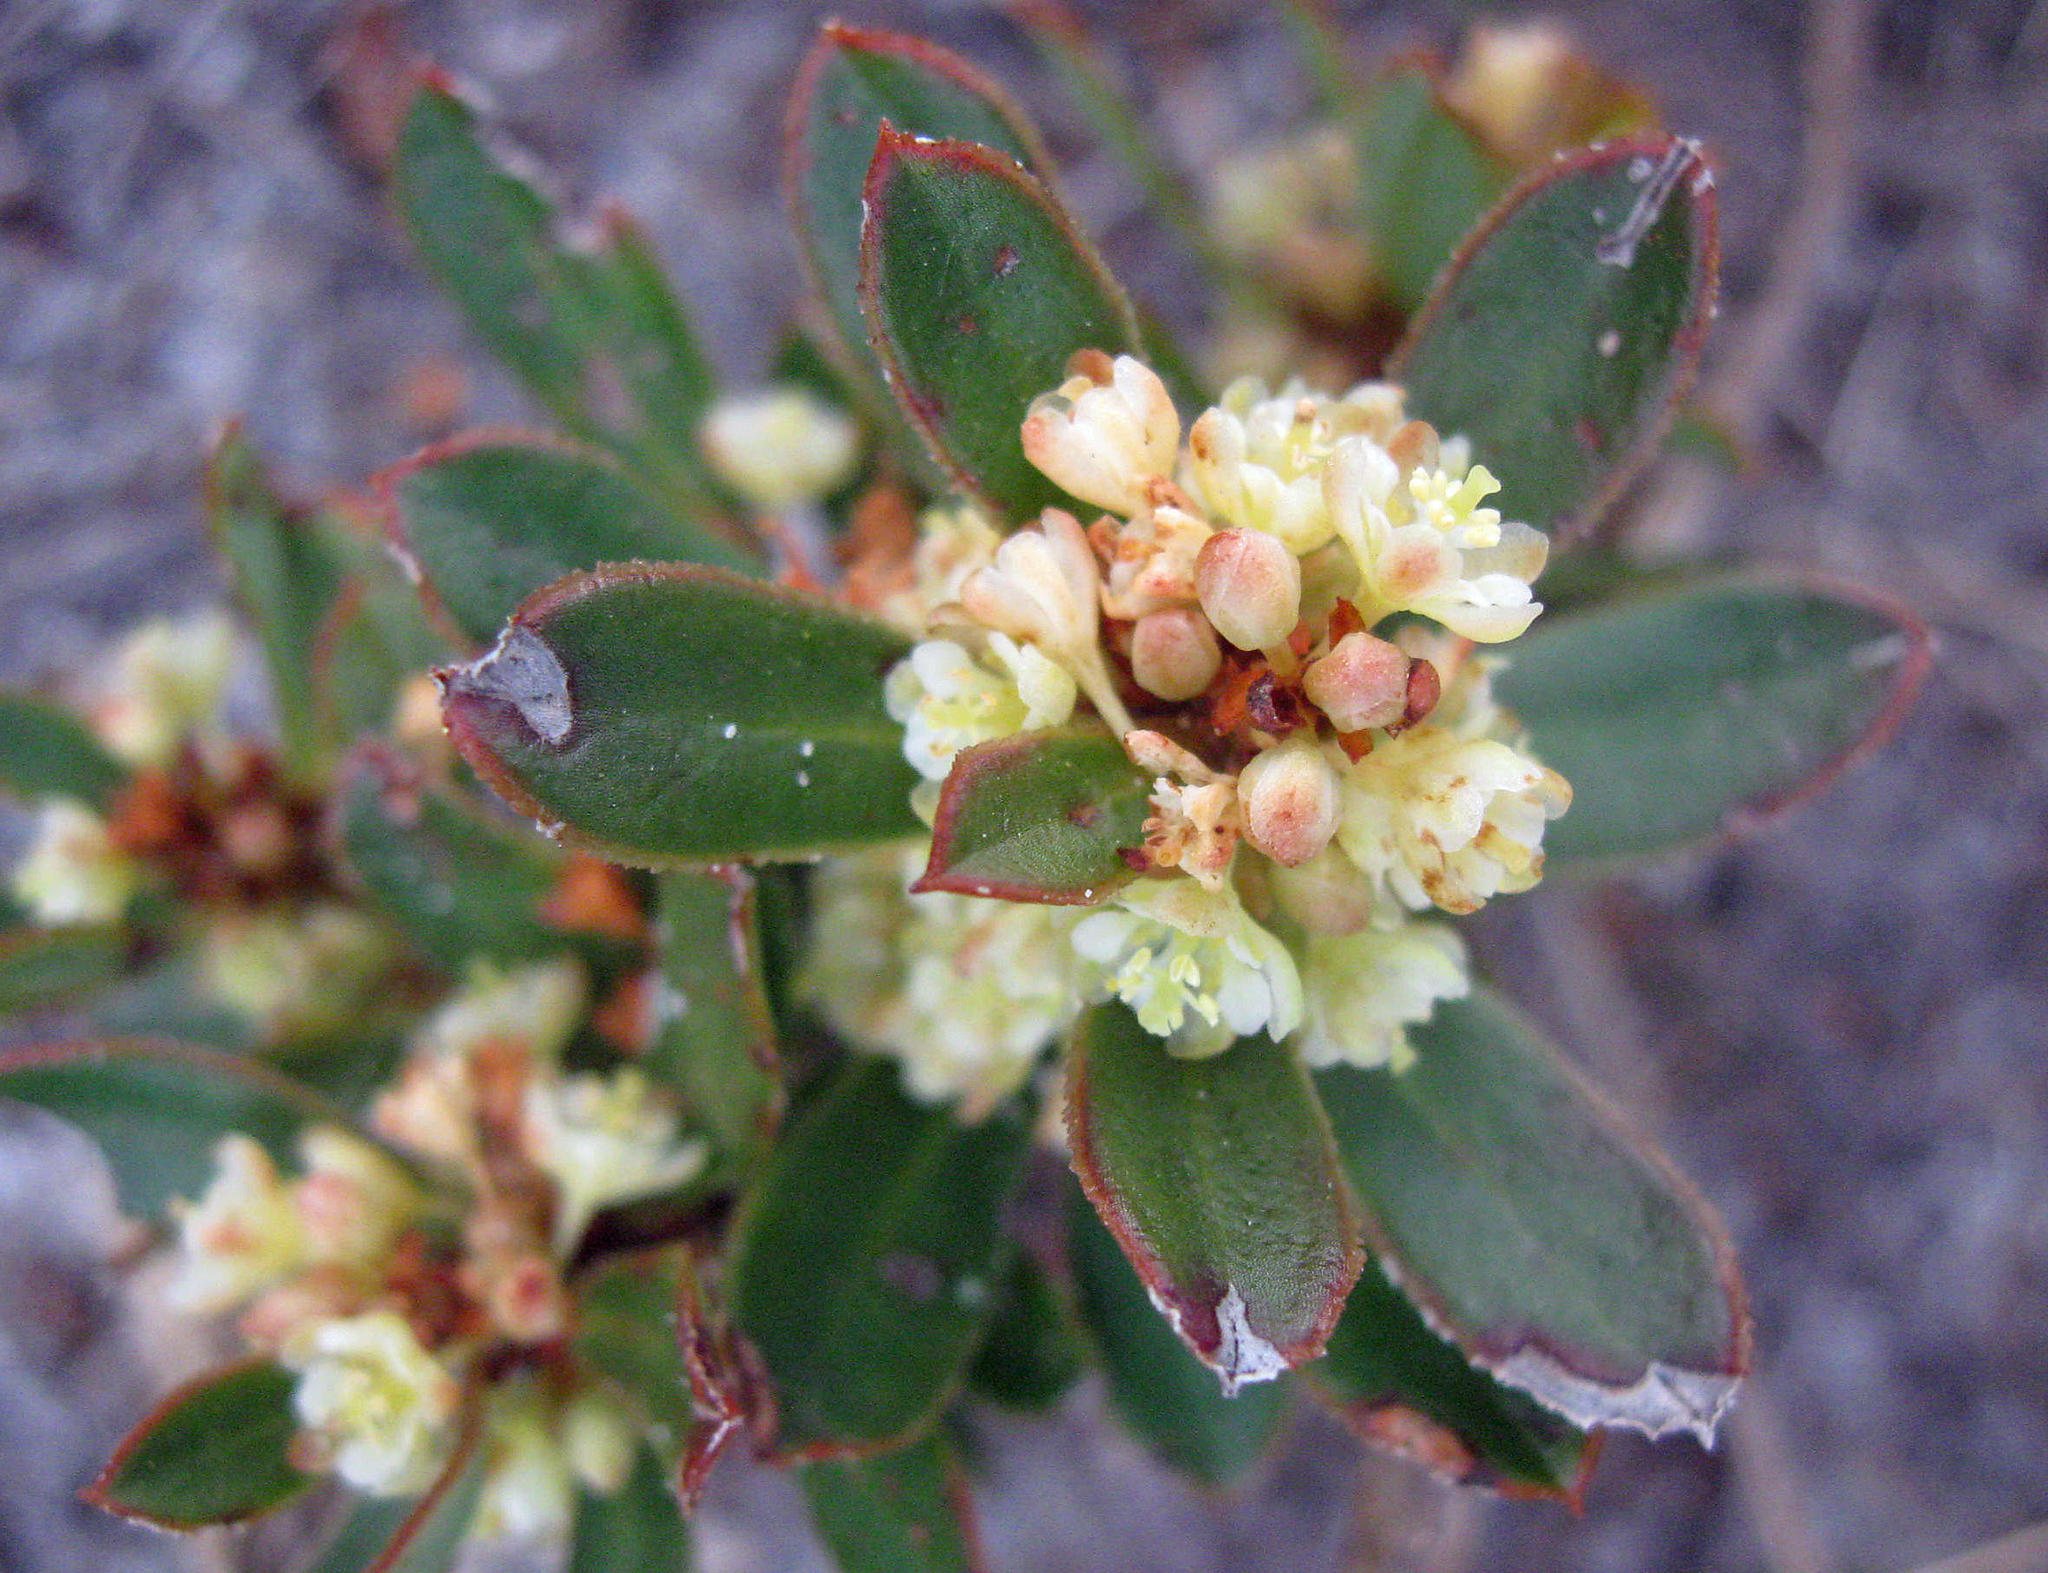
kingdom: Plantae
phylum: Tracheophyta
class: Magnoliopsida
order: Malpighiales
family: Peraceae
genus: Clutia
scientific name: Clutia alaternoides
